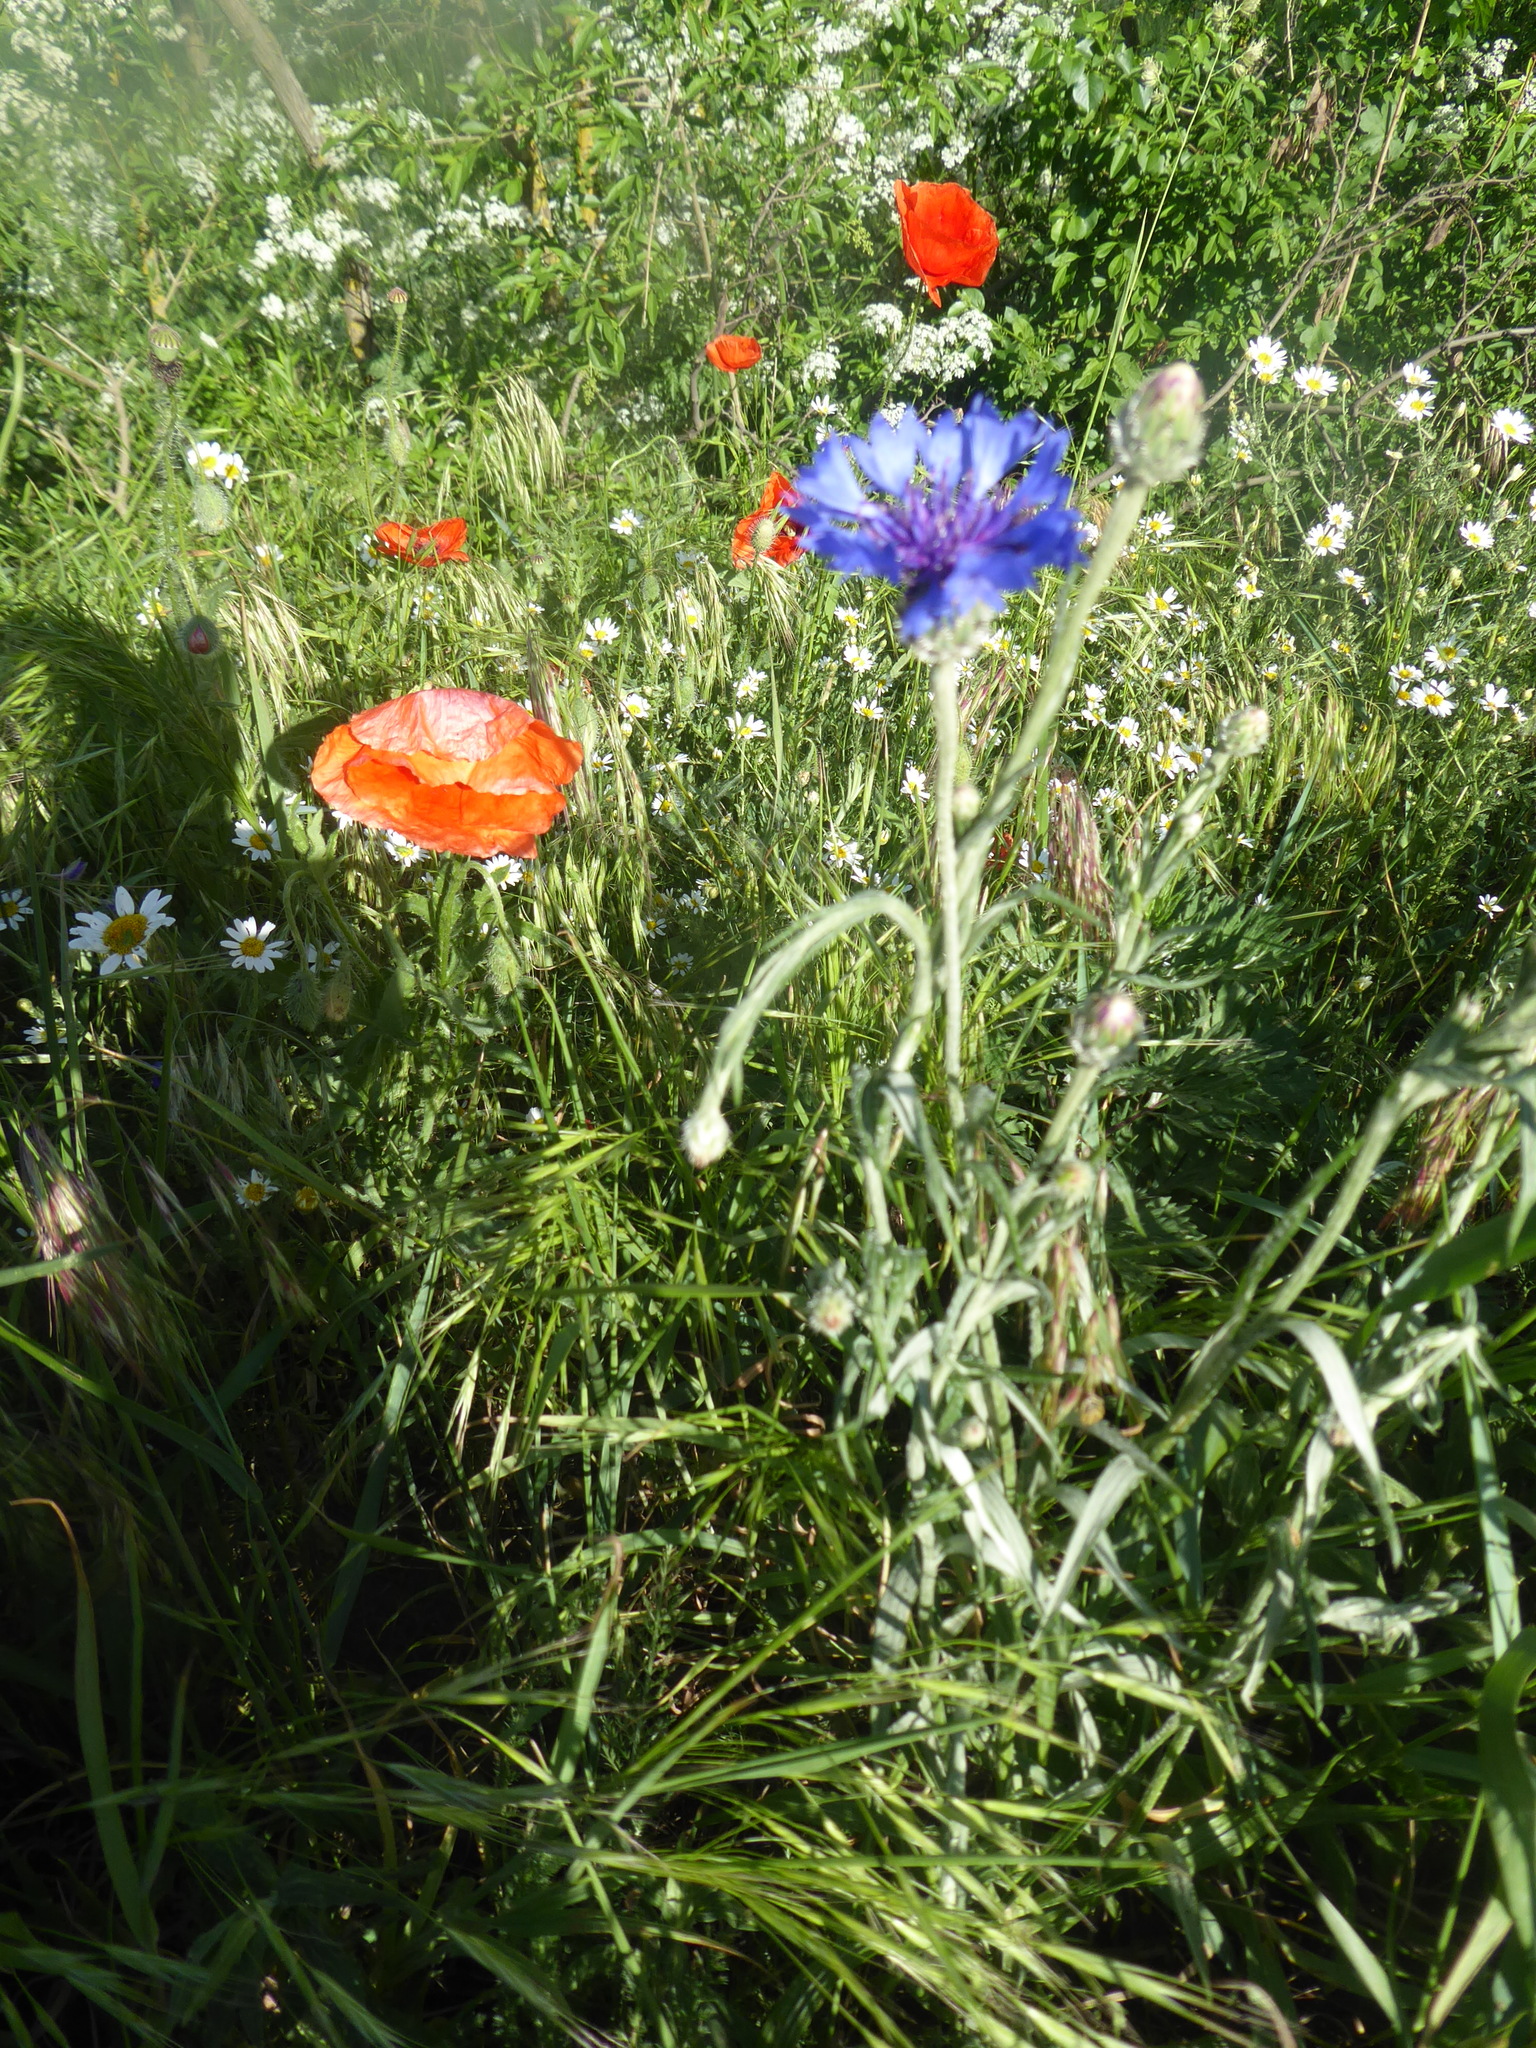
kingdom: Plantae
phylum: Tracheophyta
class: Magnoliopsida
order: Asterales
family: Asteraceae
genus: Centaurea
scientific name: Centaurea cyanus
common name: Cornflower
